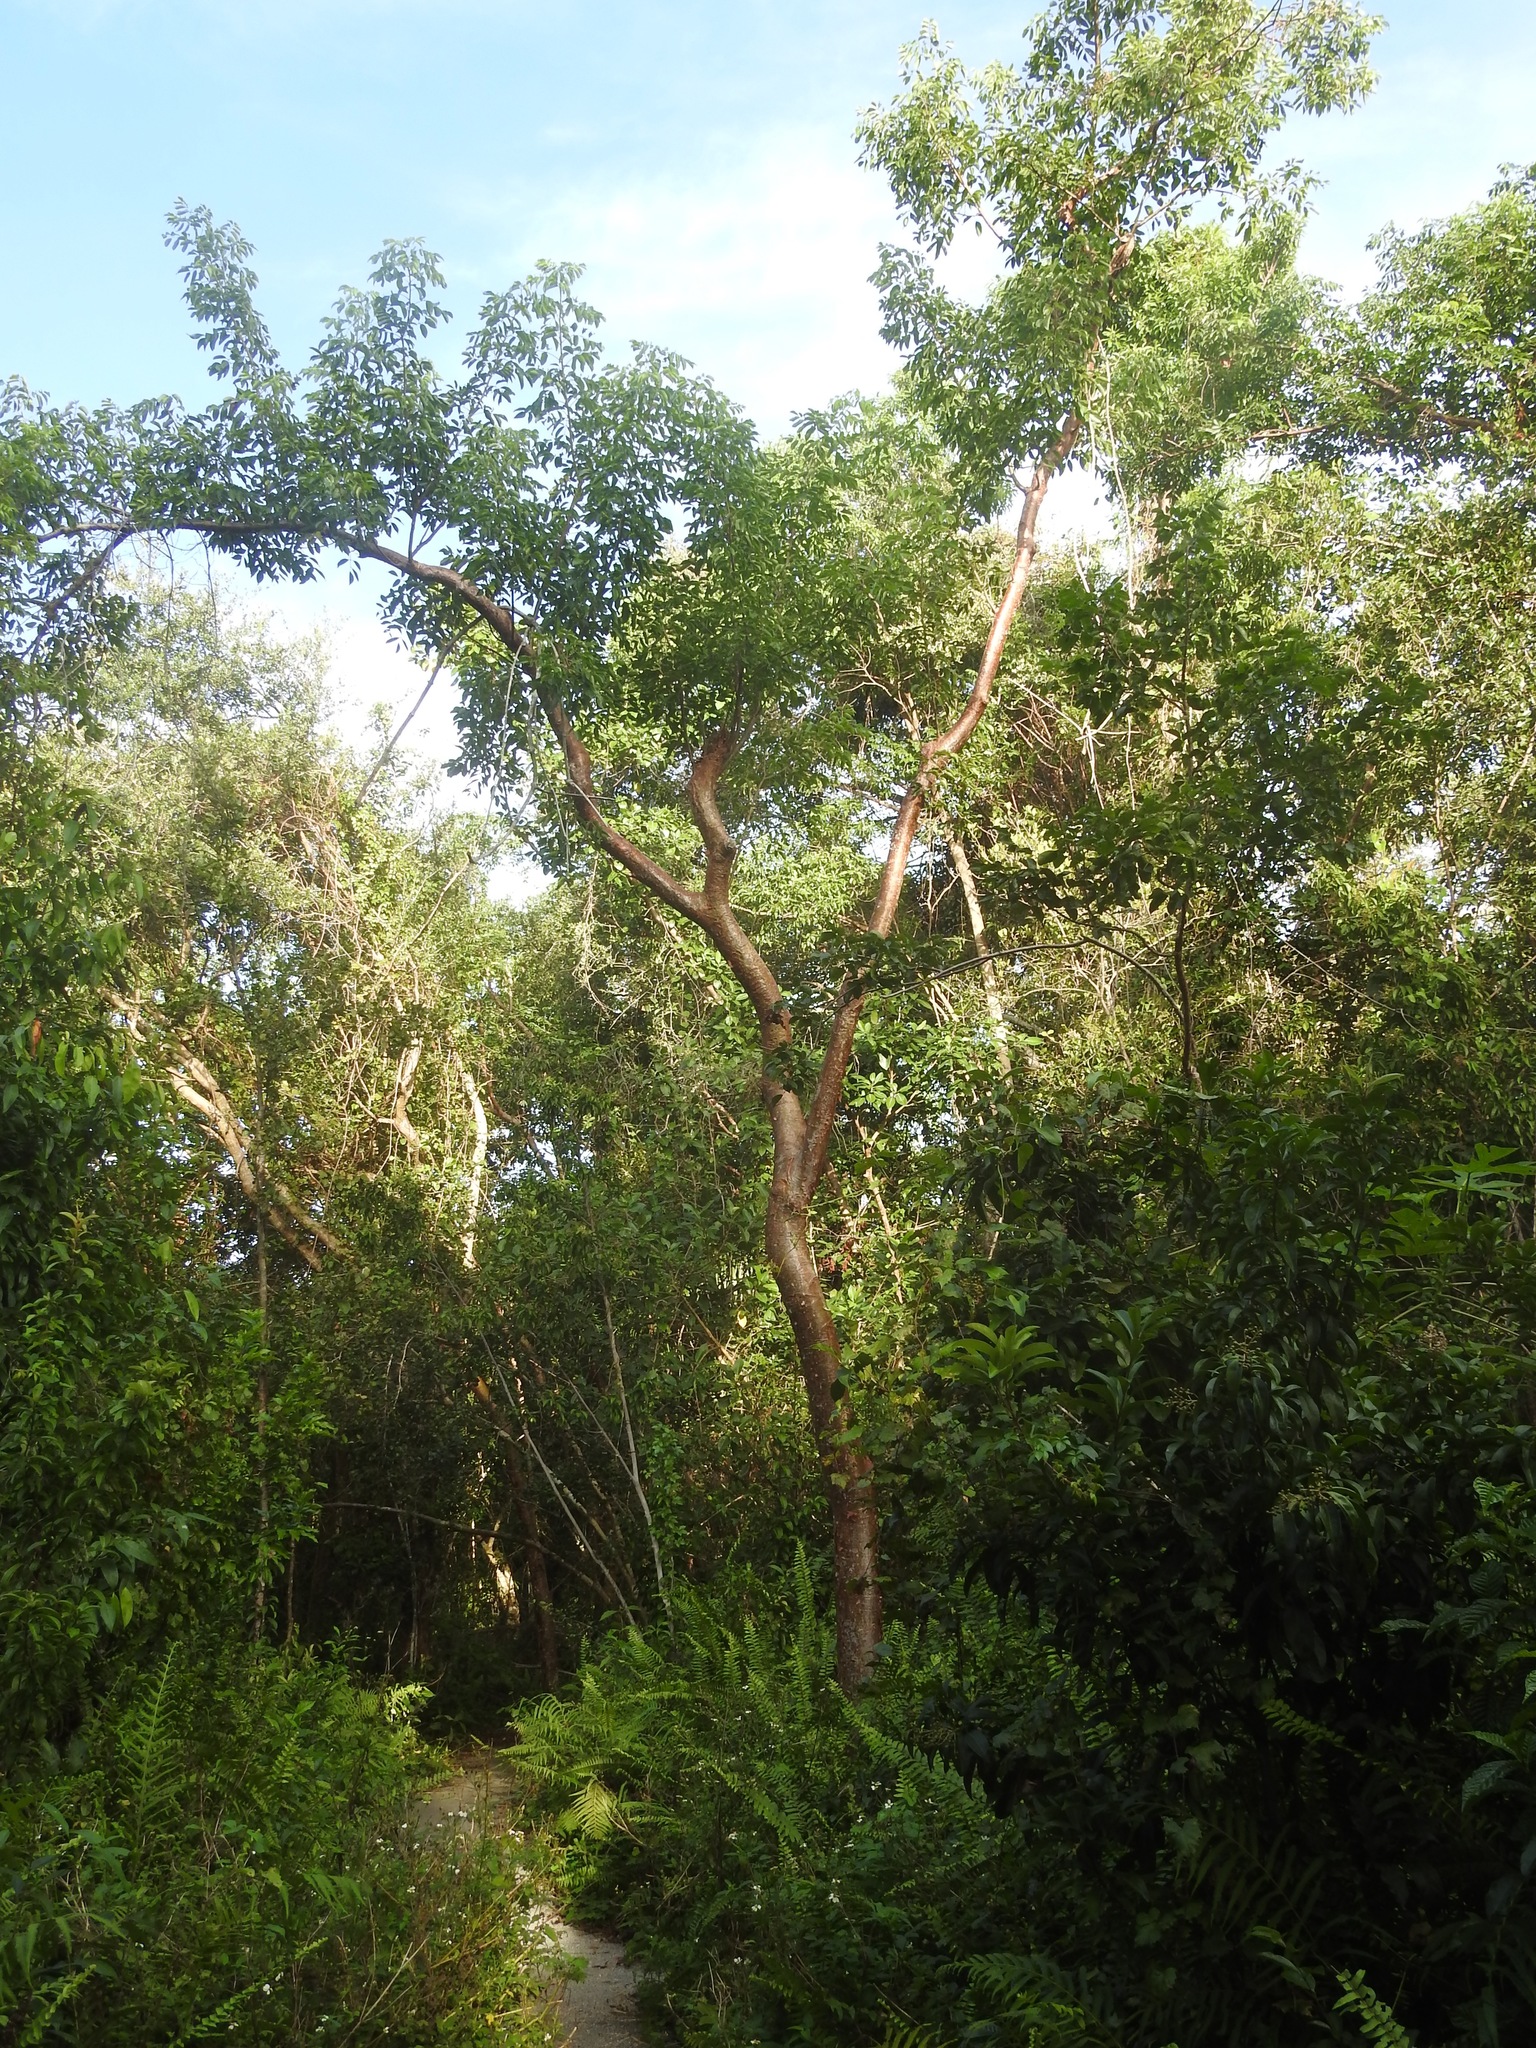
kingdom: Plantae
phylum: Tracheophyta
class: Magnoliopsida
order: Sapindales
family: Burseraceae
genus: Bursera
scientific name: Bursera simaruba
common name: Turpentine tree
